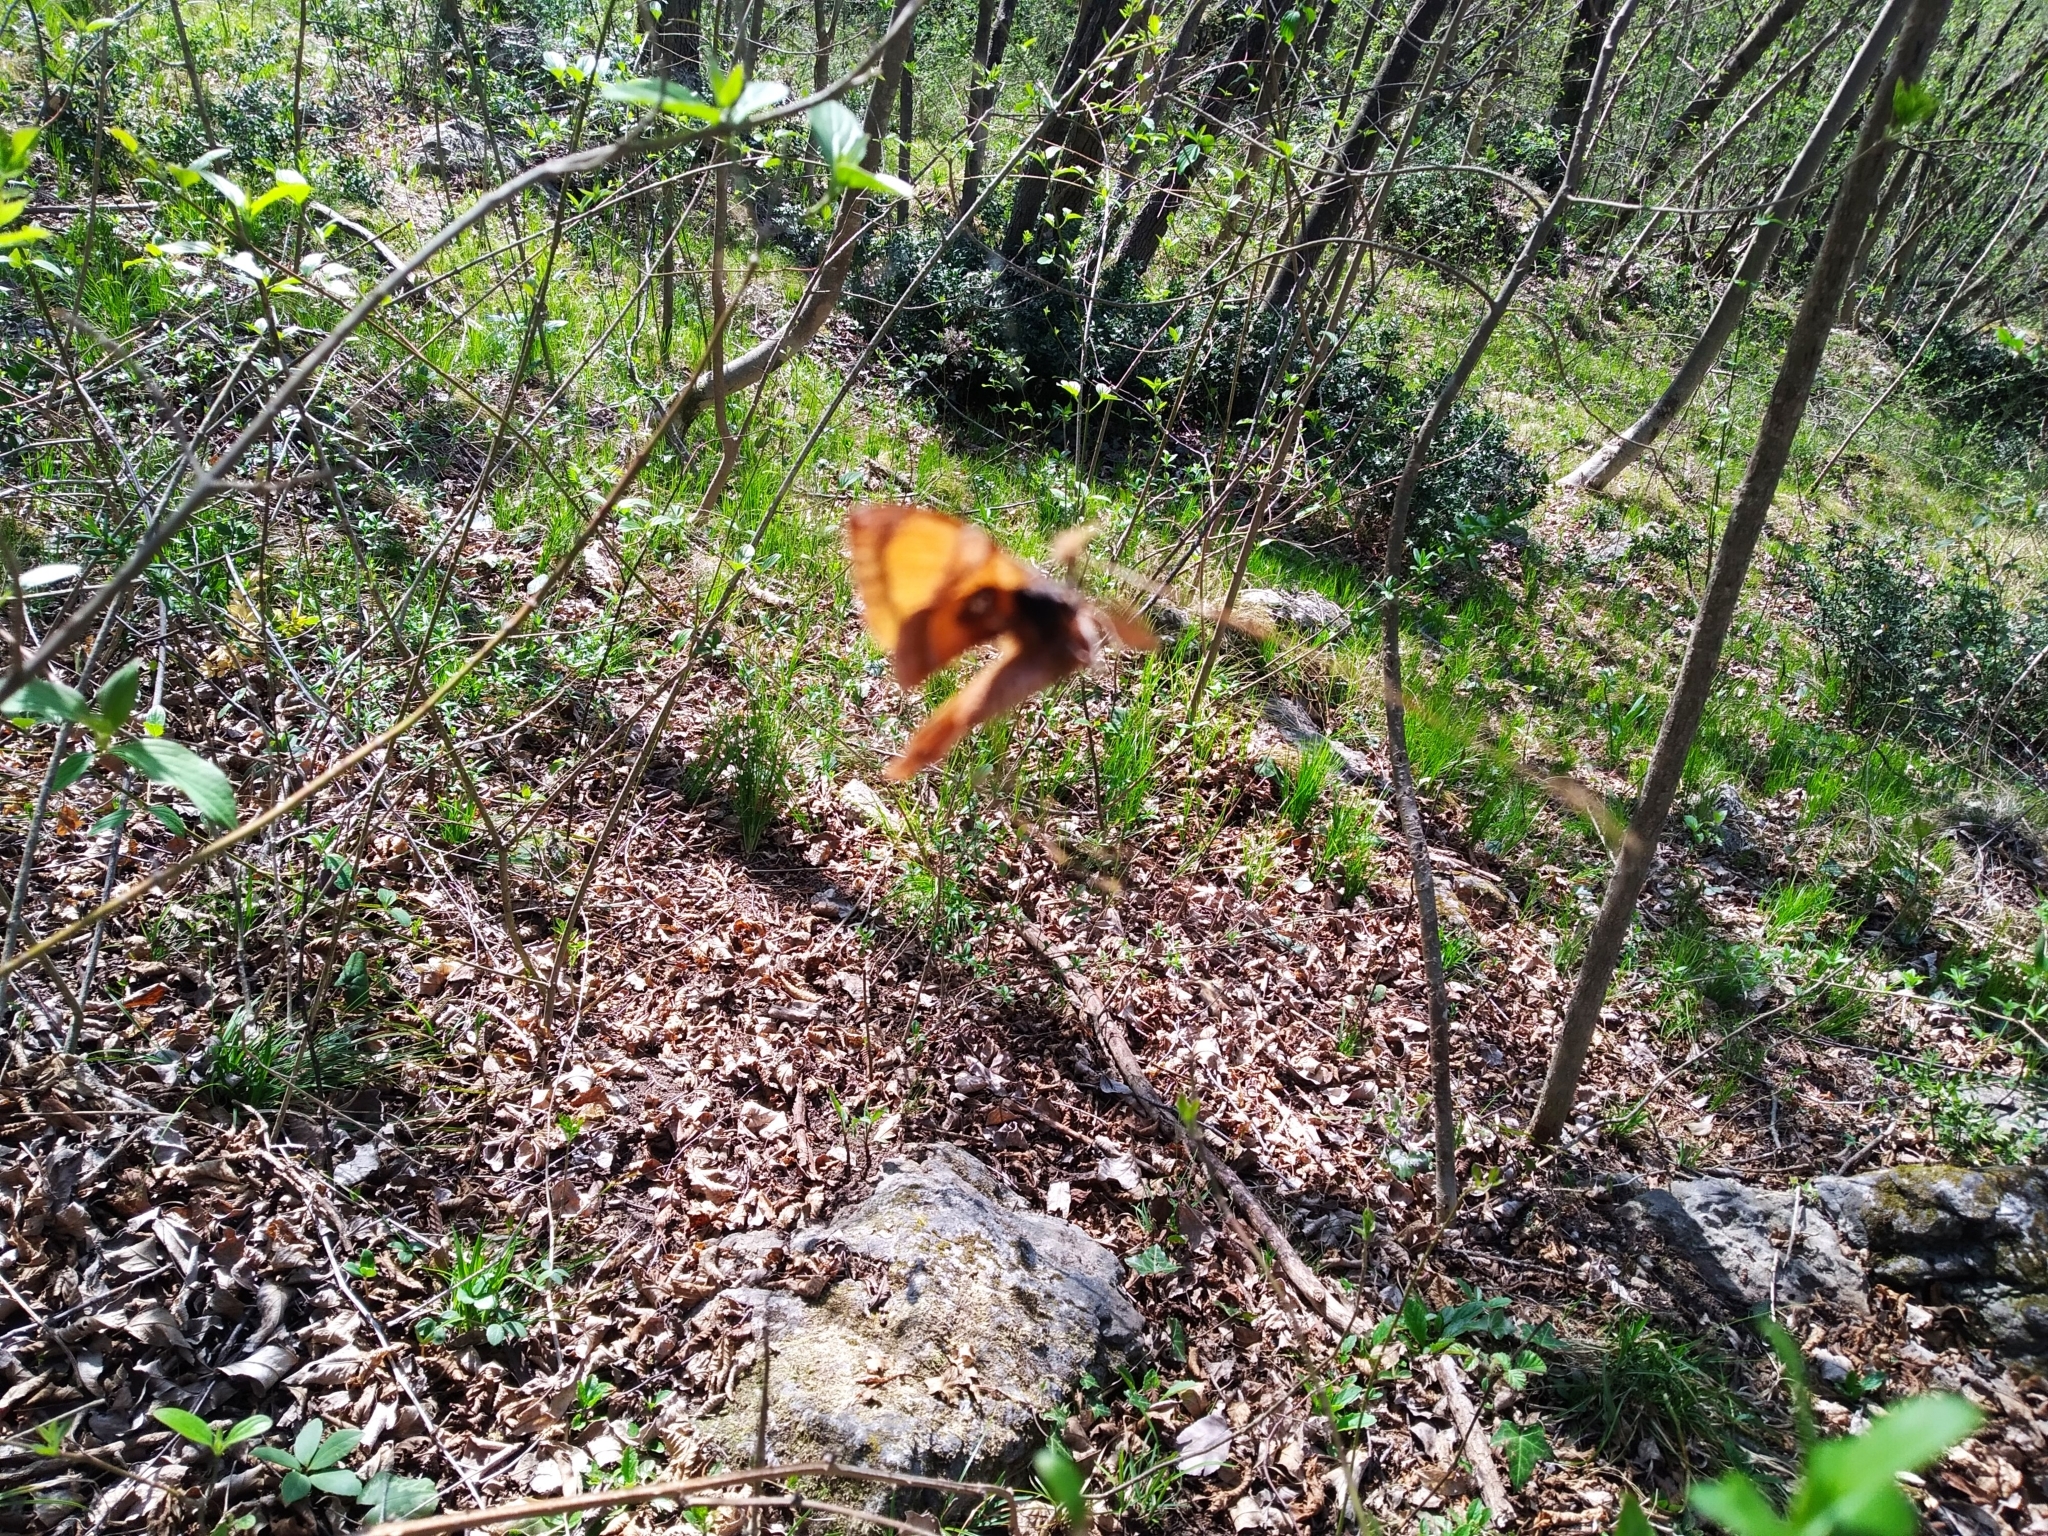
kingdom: Animalia
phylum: Arthropoda
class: Insecta
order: Lepidoptera
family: Saturniidae
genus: Aglia
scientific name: Aglia tau
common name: Tau emperor
